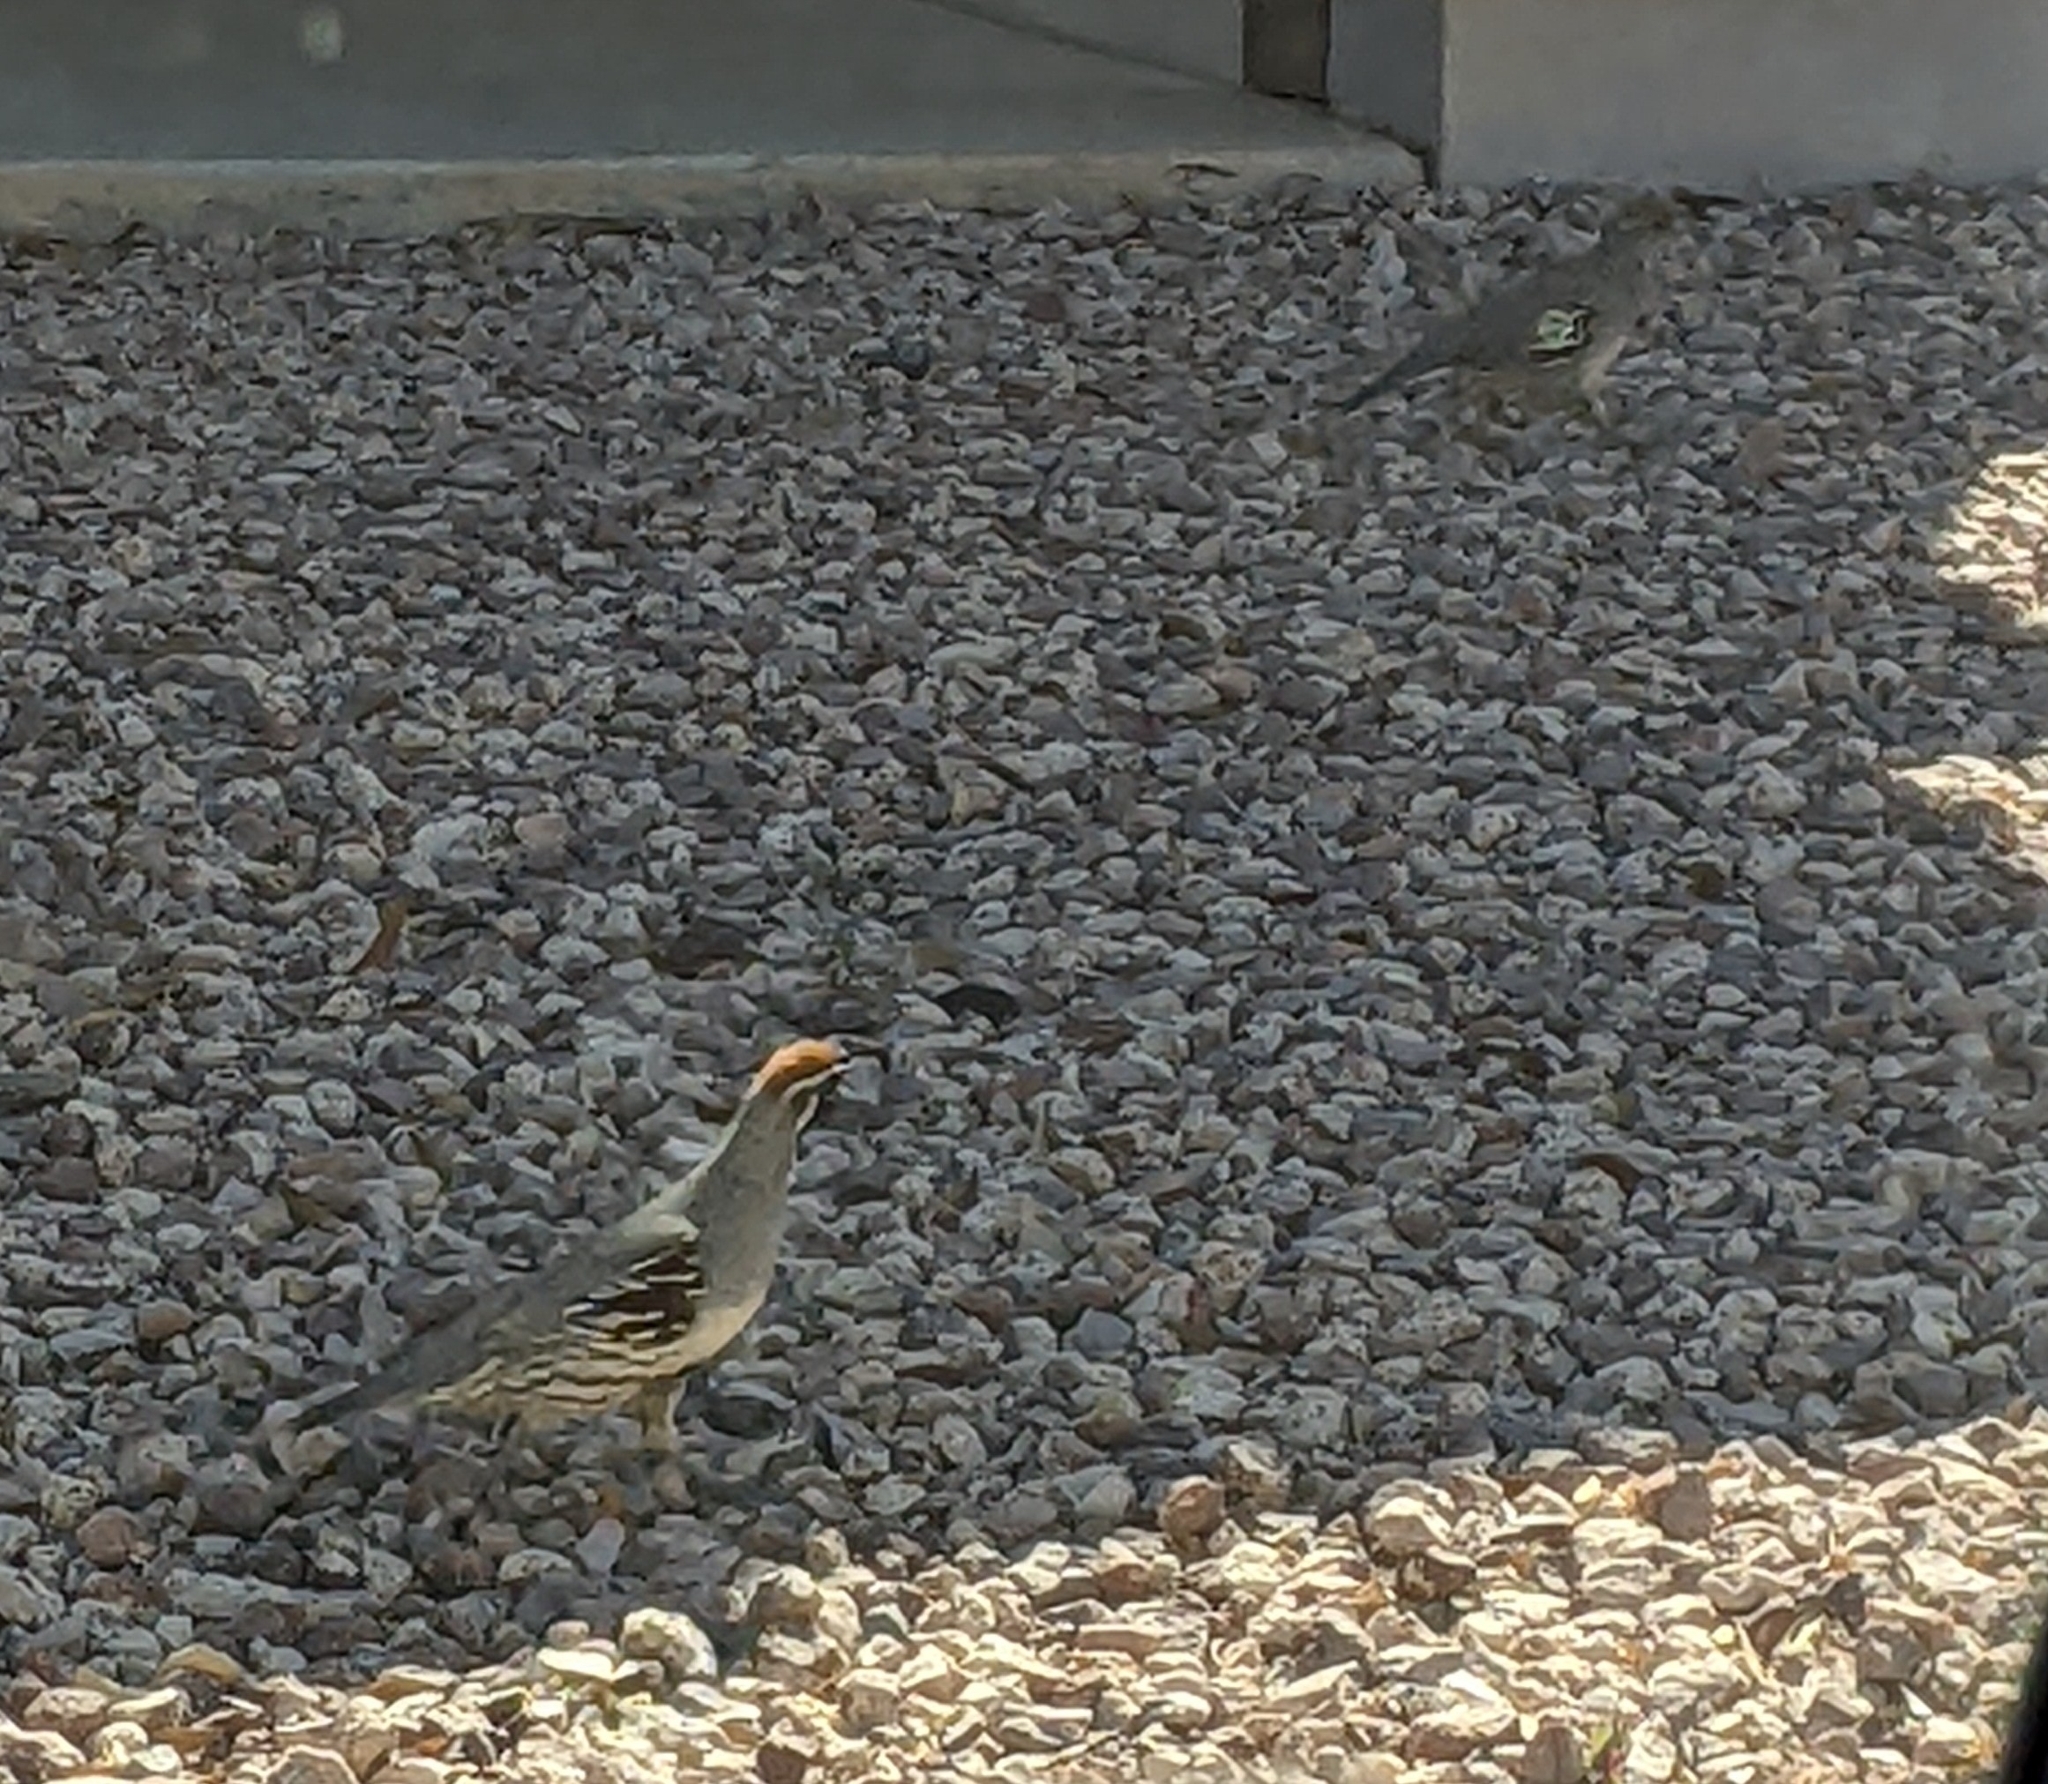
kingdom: Animalia
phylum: Chordata
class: Aves
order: Galliformes
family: Odontophoridae
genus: Callipepla
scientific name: Callipepla gambelii
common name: Gambel's quail
